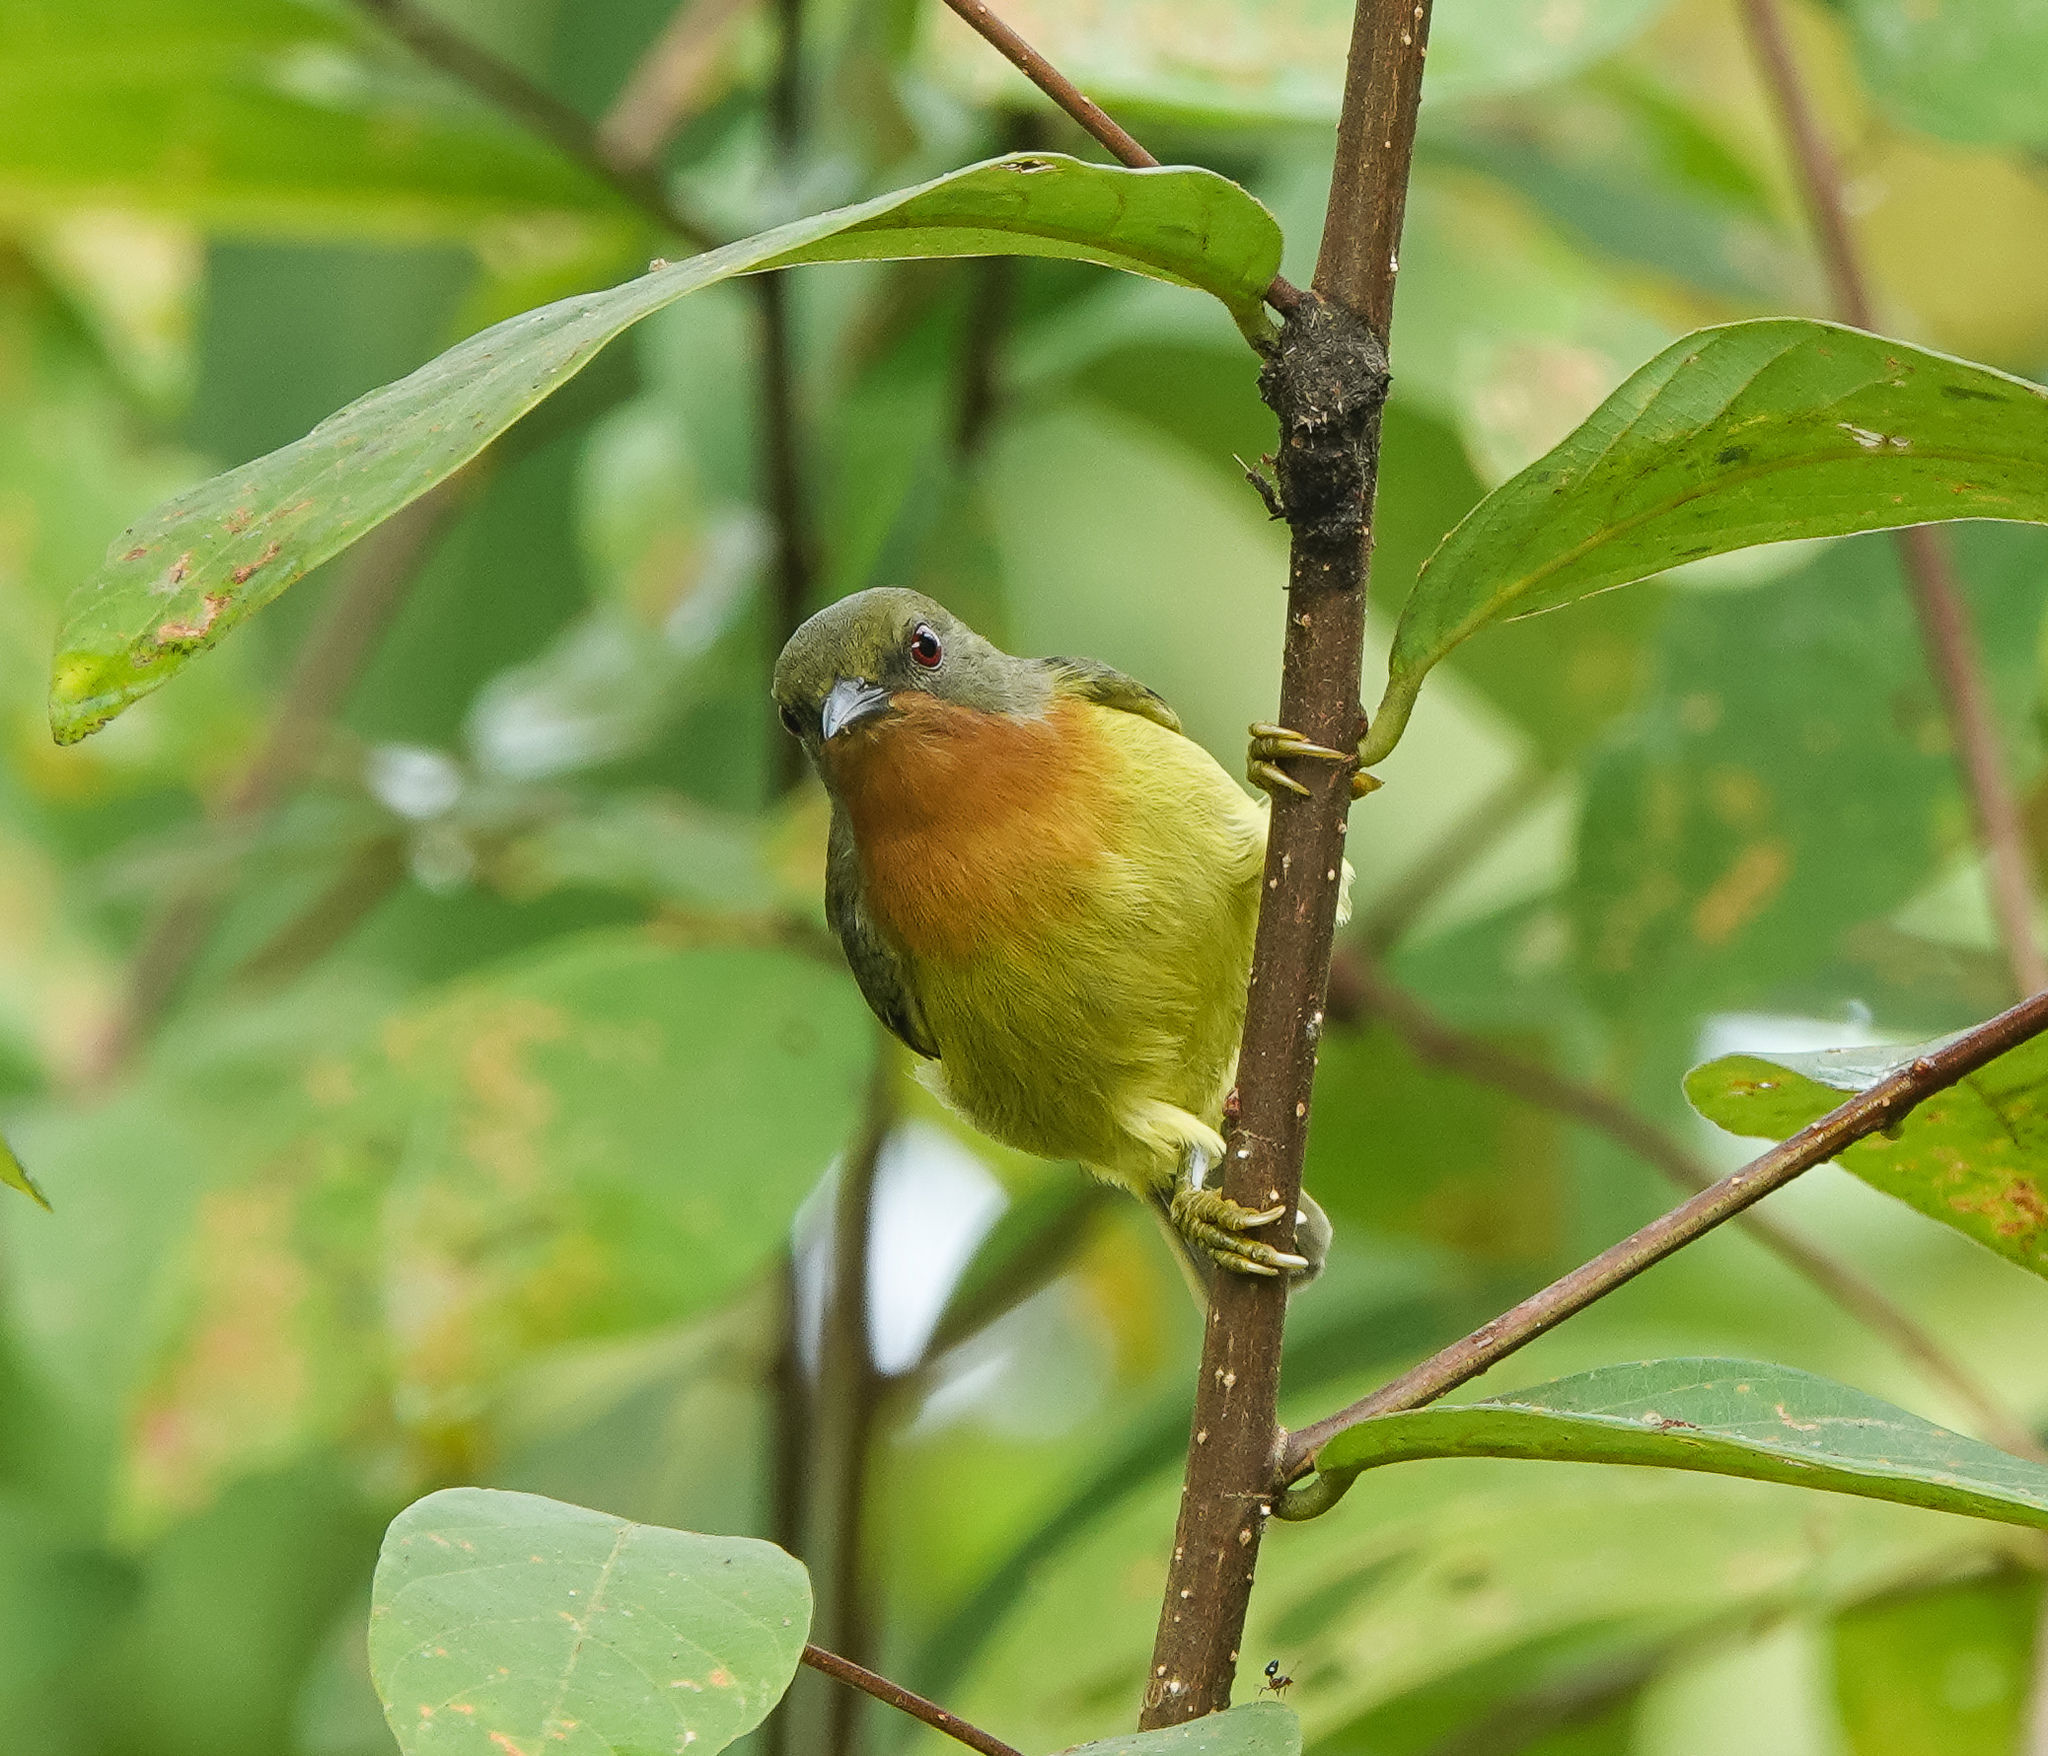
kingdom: Animalia
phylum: Chordata
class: Aves
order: Passeriformes
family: Nectariniidae
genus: Chalcoparia
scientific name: Chalcoparia singalensis
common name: Ruby-cheeked sunbird
